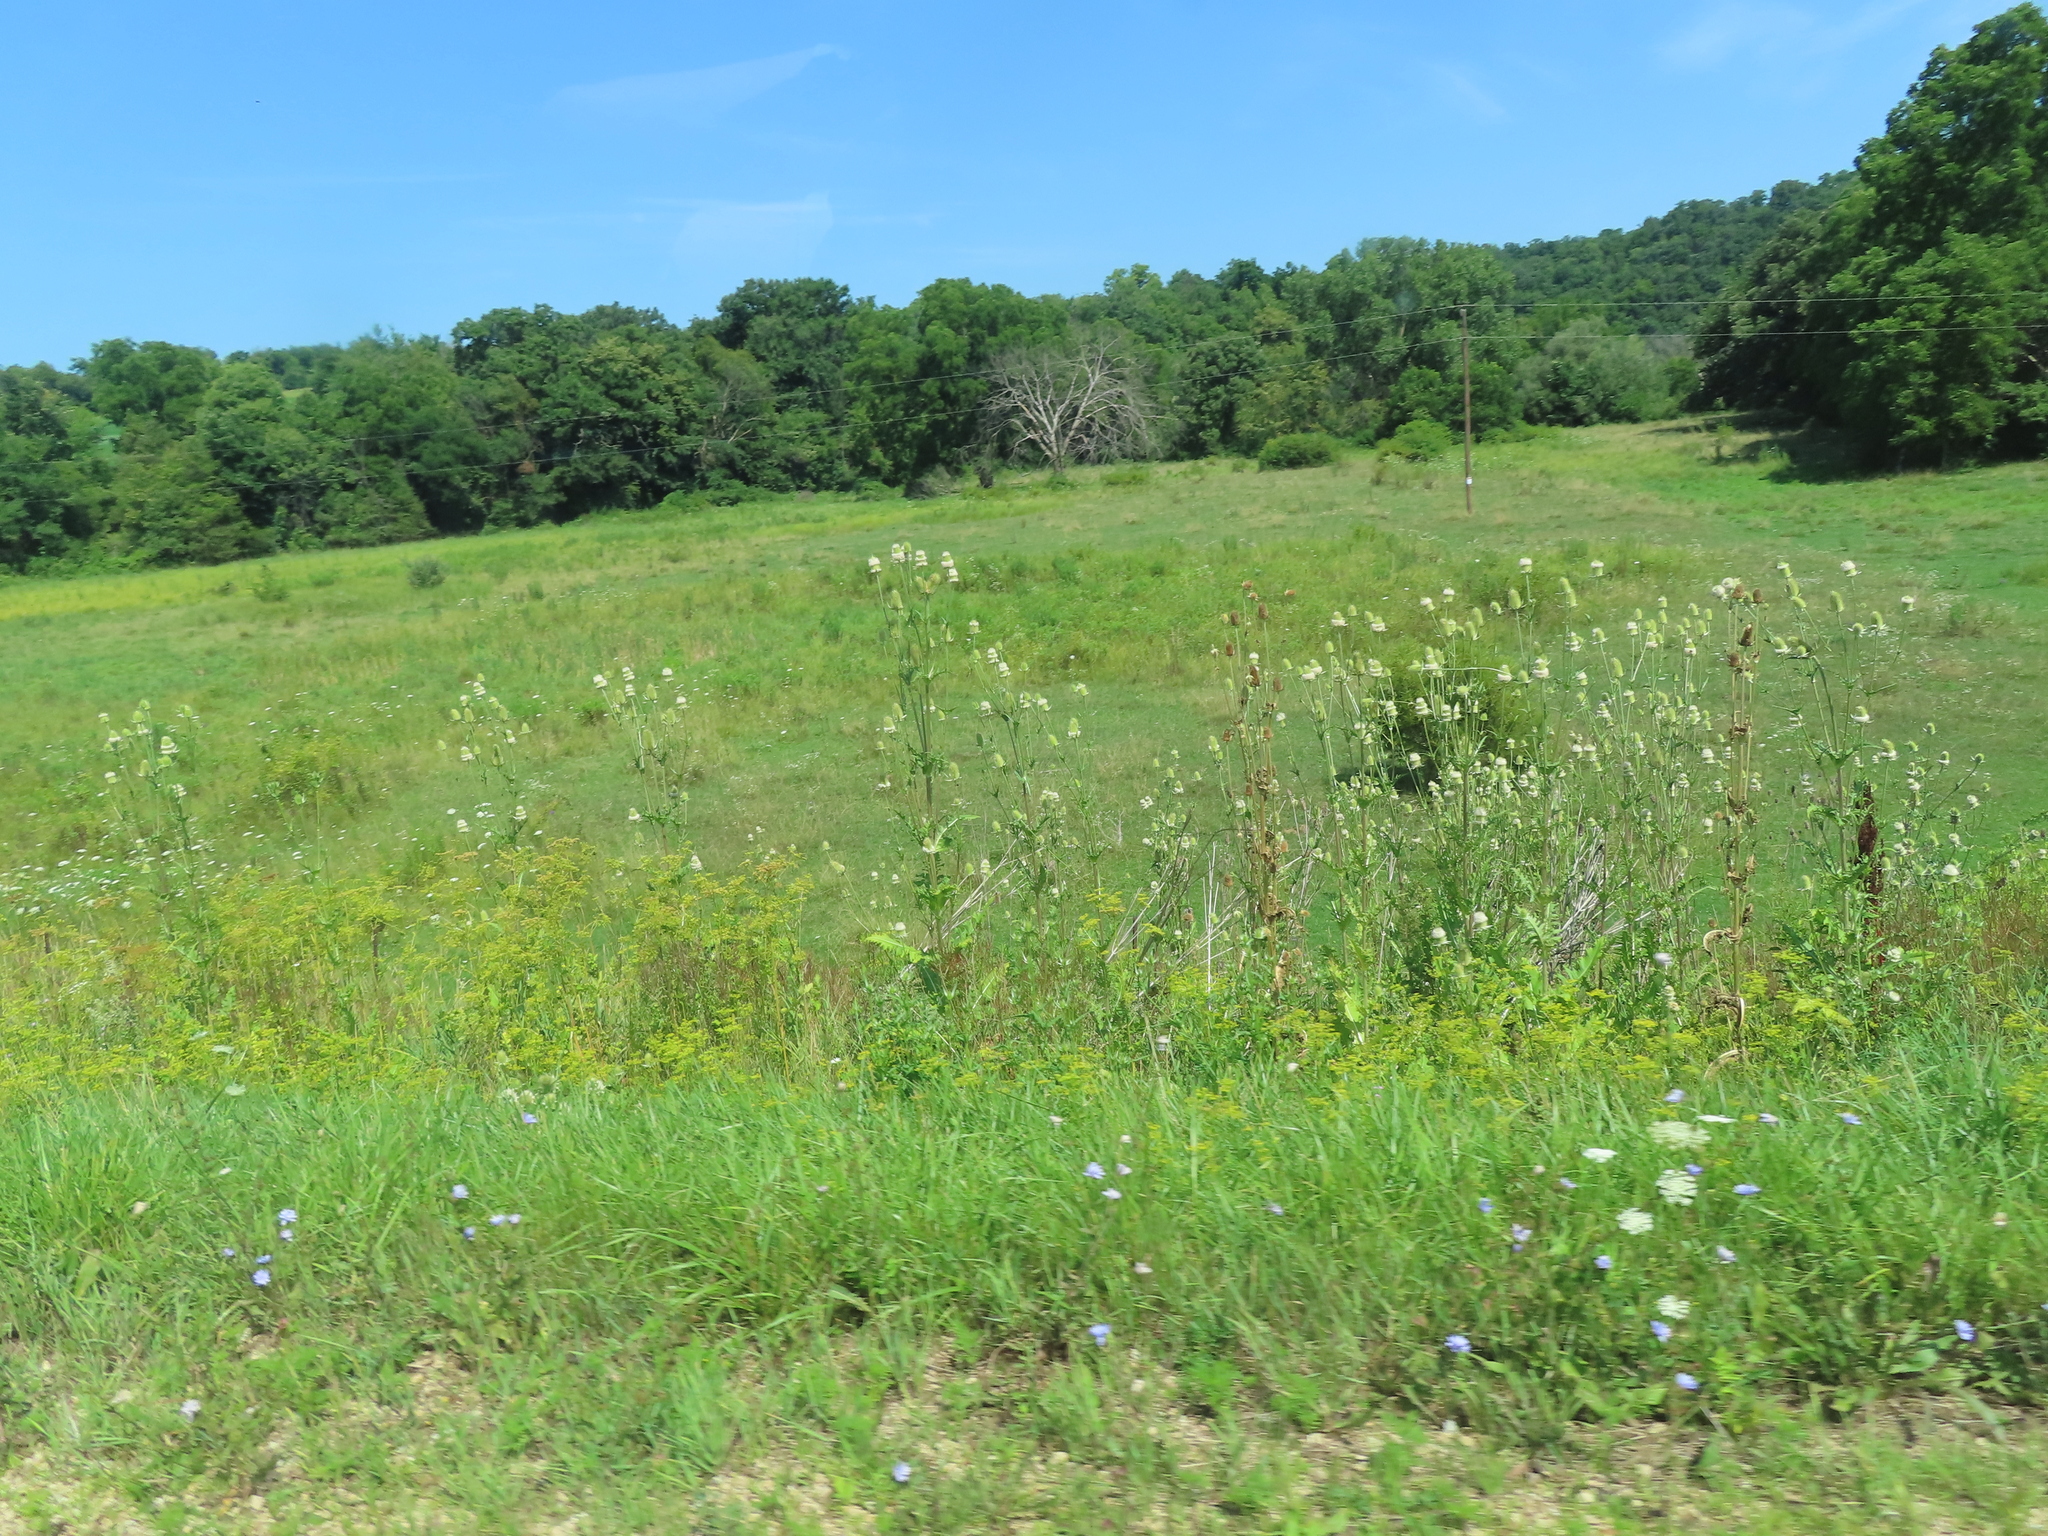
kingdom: Plantae
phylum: Tracheophyta
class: Magnoliopsida
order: Dipsacales
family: Caprifoliaceae
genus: Dipsacus
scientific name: Dipsacus laciniatus
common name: Cut-leaved teasel
